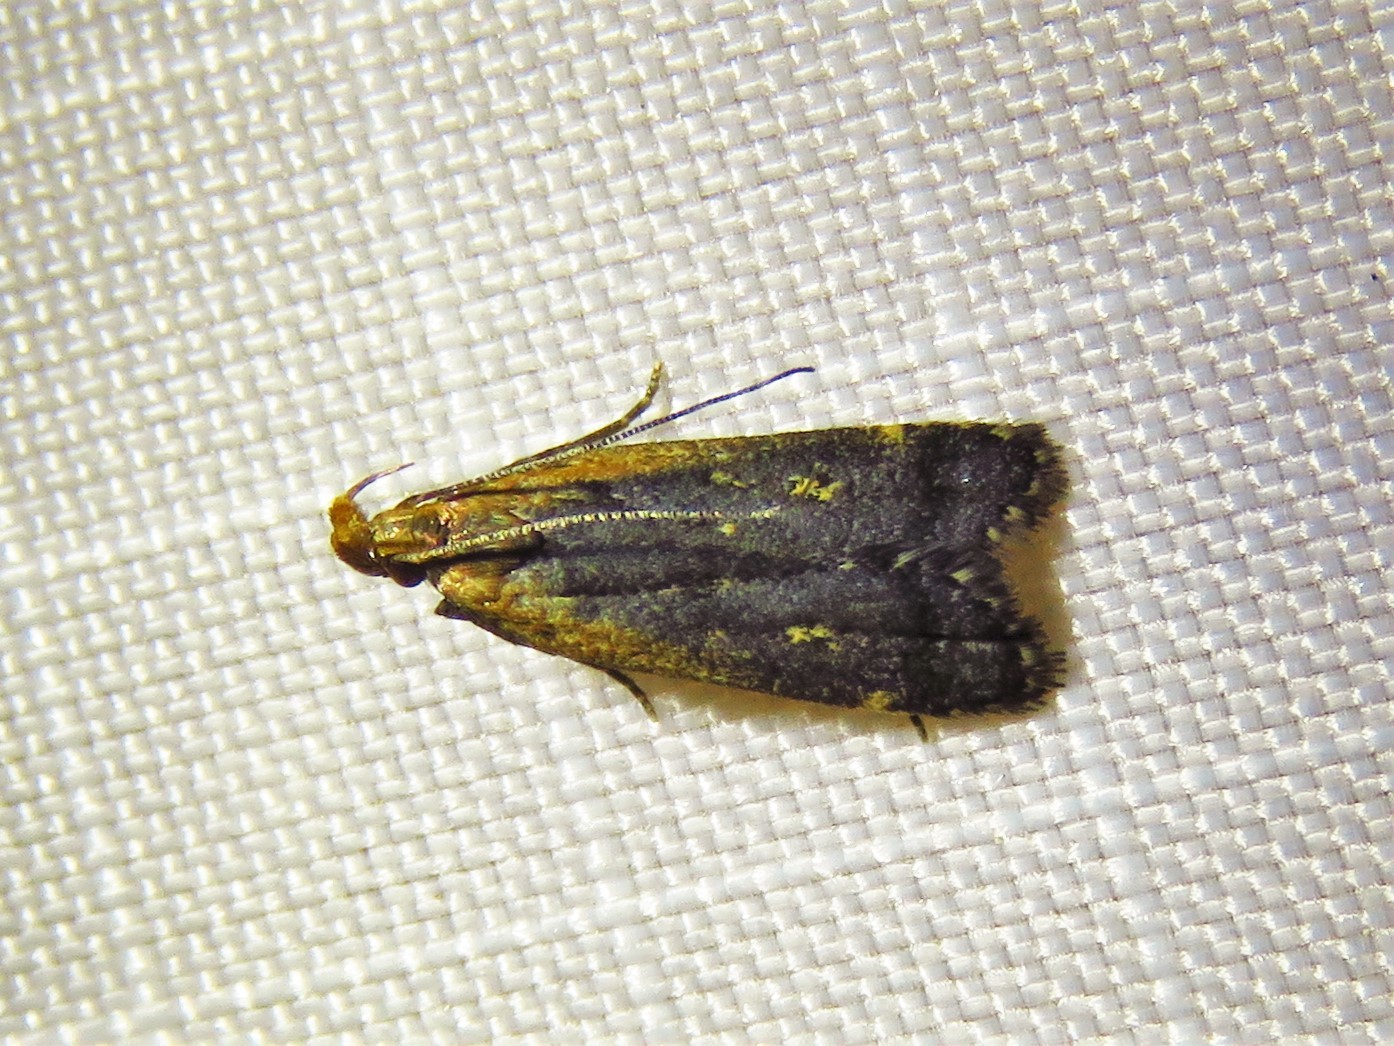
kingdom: Animalia
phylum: Arthropoda
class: Insecta
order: Lepidoptera
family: Gelechiidae
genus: Dichomeris
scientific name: Dichomeris costarufoella
